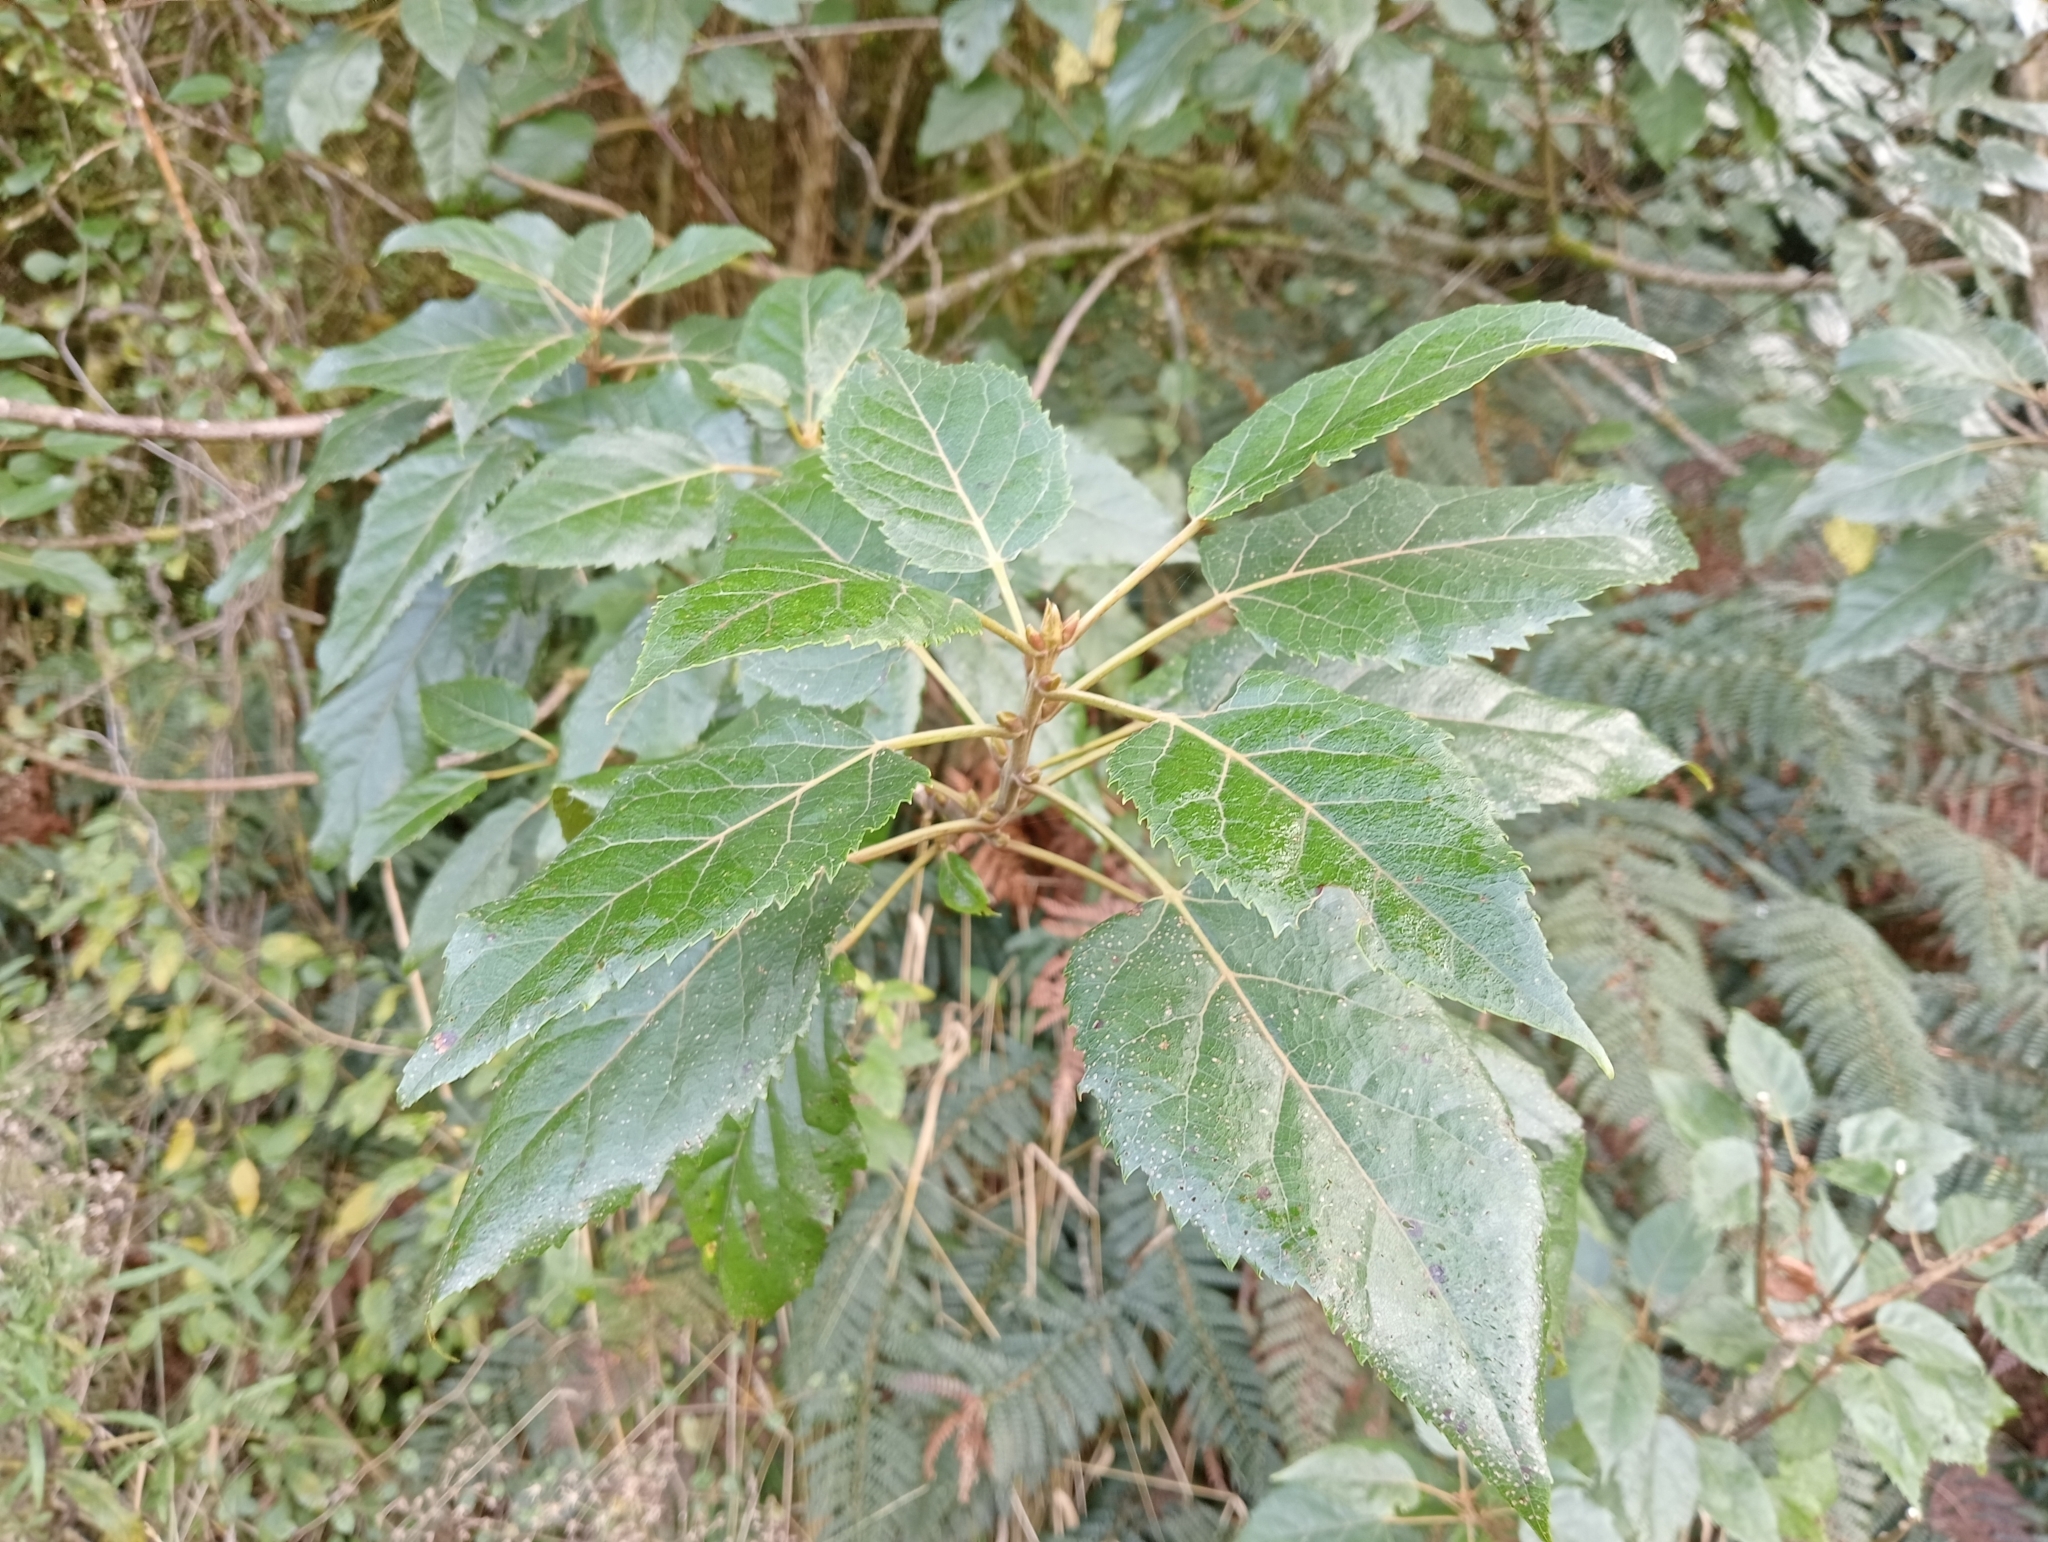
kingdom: Plantae
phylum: Tracheophyta
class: Magnoliopsida
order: Oxalidales
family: Elaeocarpaceae
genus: Aristotelia
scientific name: Aristotelia serrata
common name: New zealand wineberry
